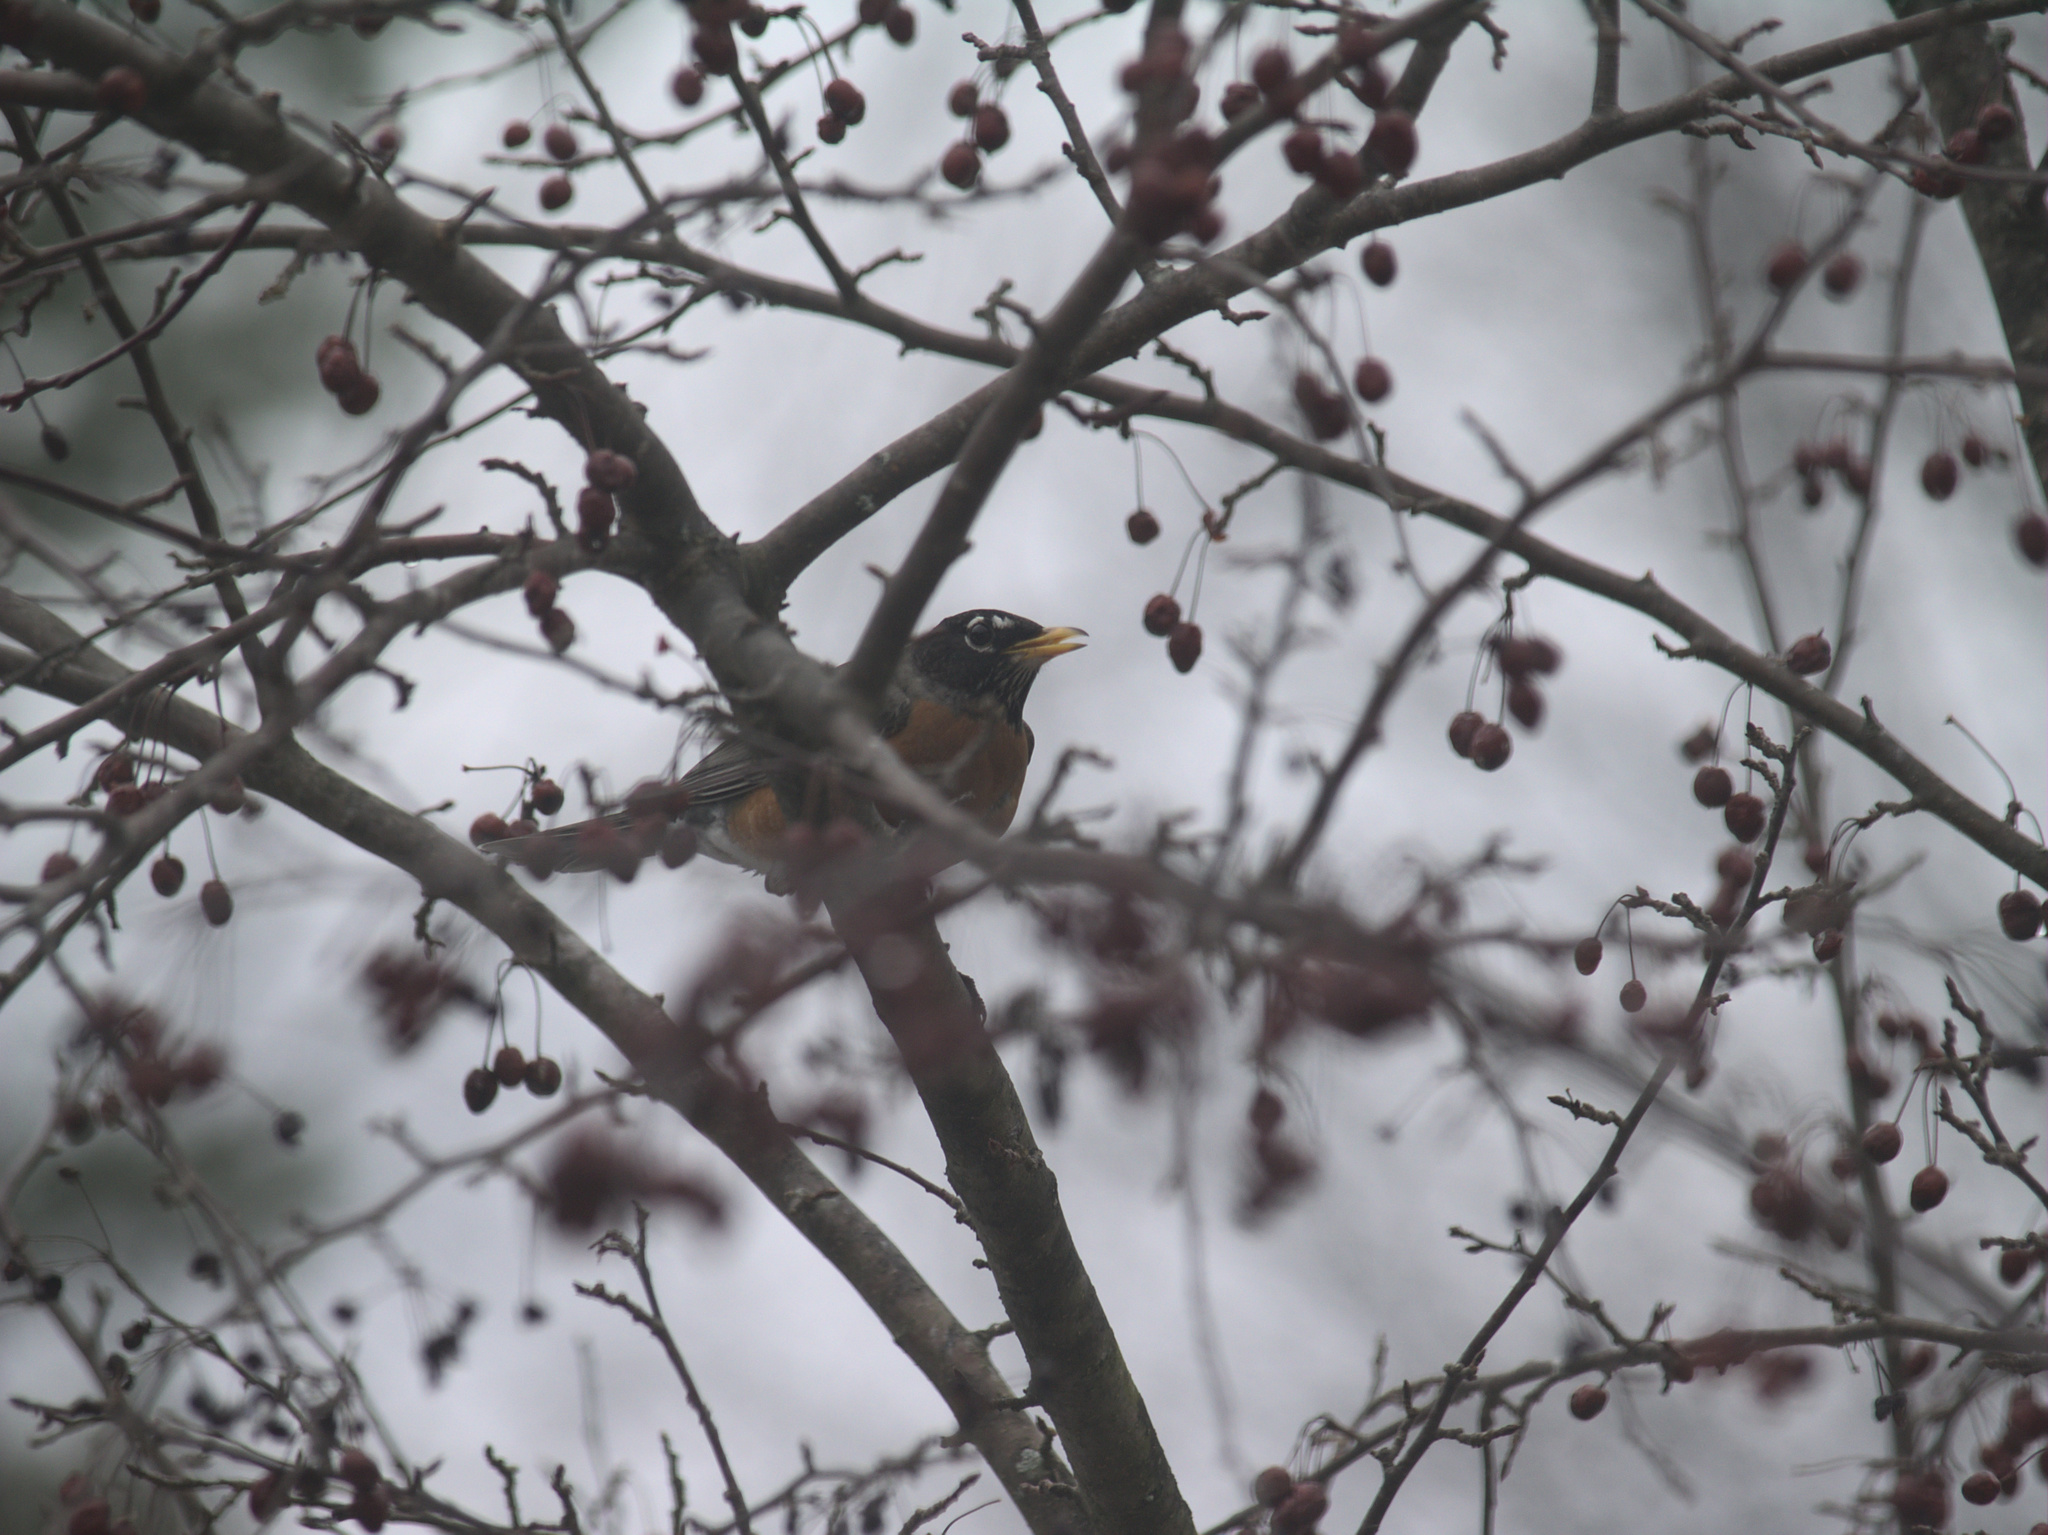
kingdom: Animalia
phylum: Chordata
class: Aves
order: Passeriformes
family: Turdidae
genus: Turdus
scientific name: Turdus migratorius
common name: American robin
